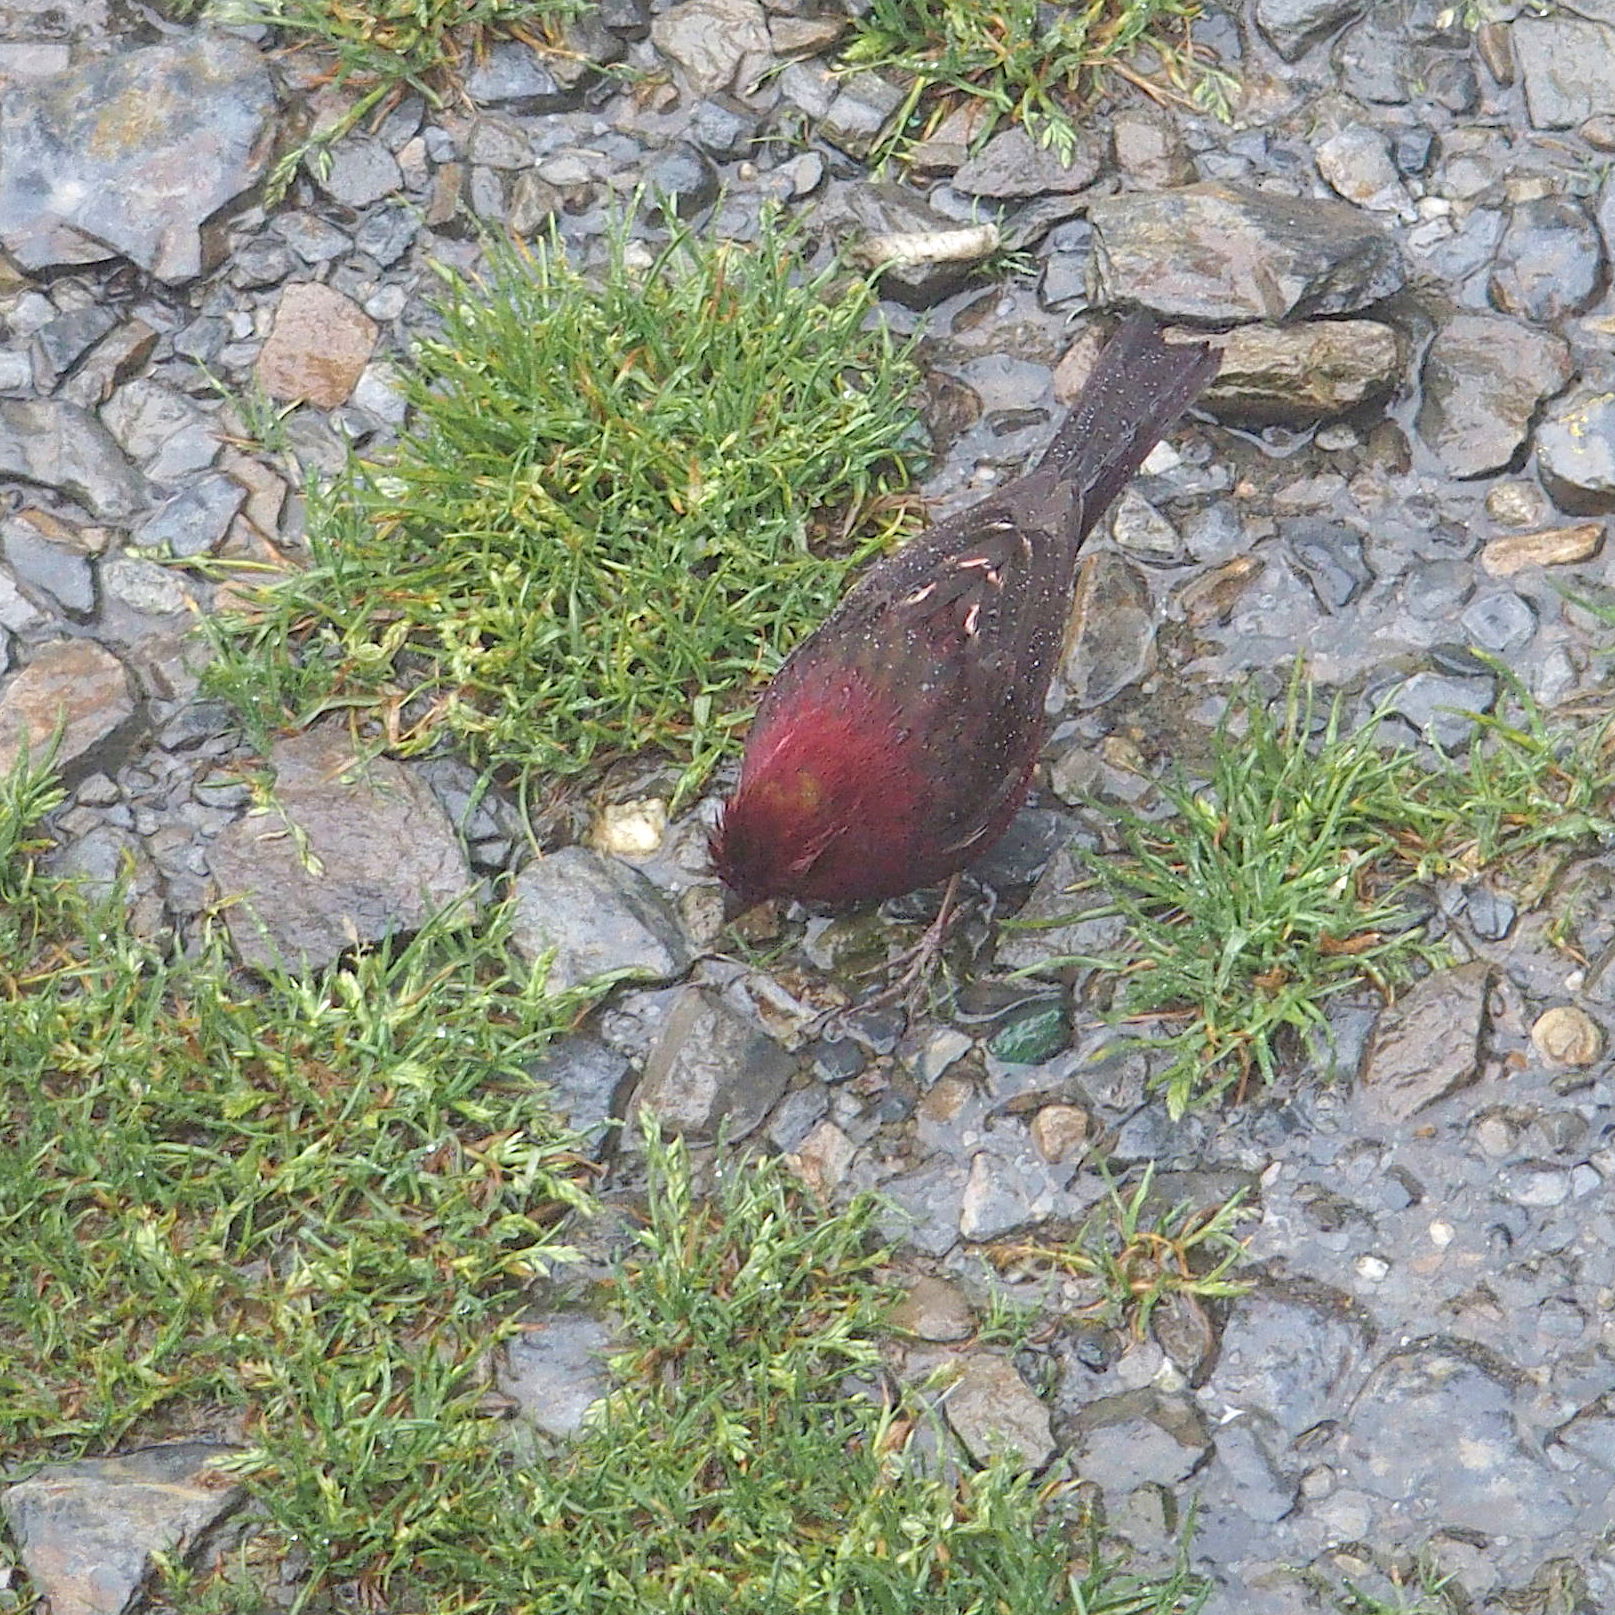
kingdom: Animalia
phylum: Chordata
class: Aves
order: Passeriformes
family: Fringillidae
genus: Carpodacus
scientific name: Carpodacus formosanus
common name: Taiwan rosefinch
